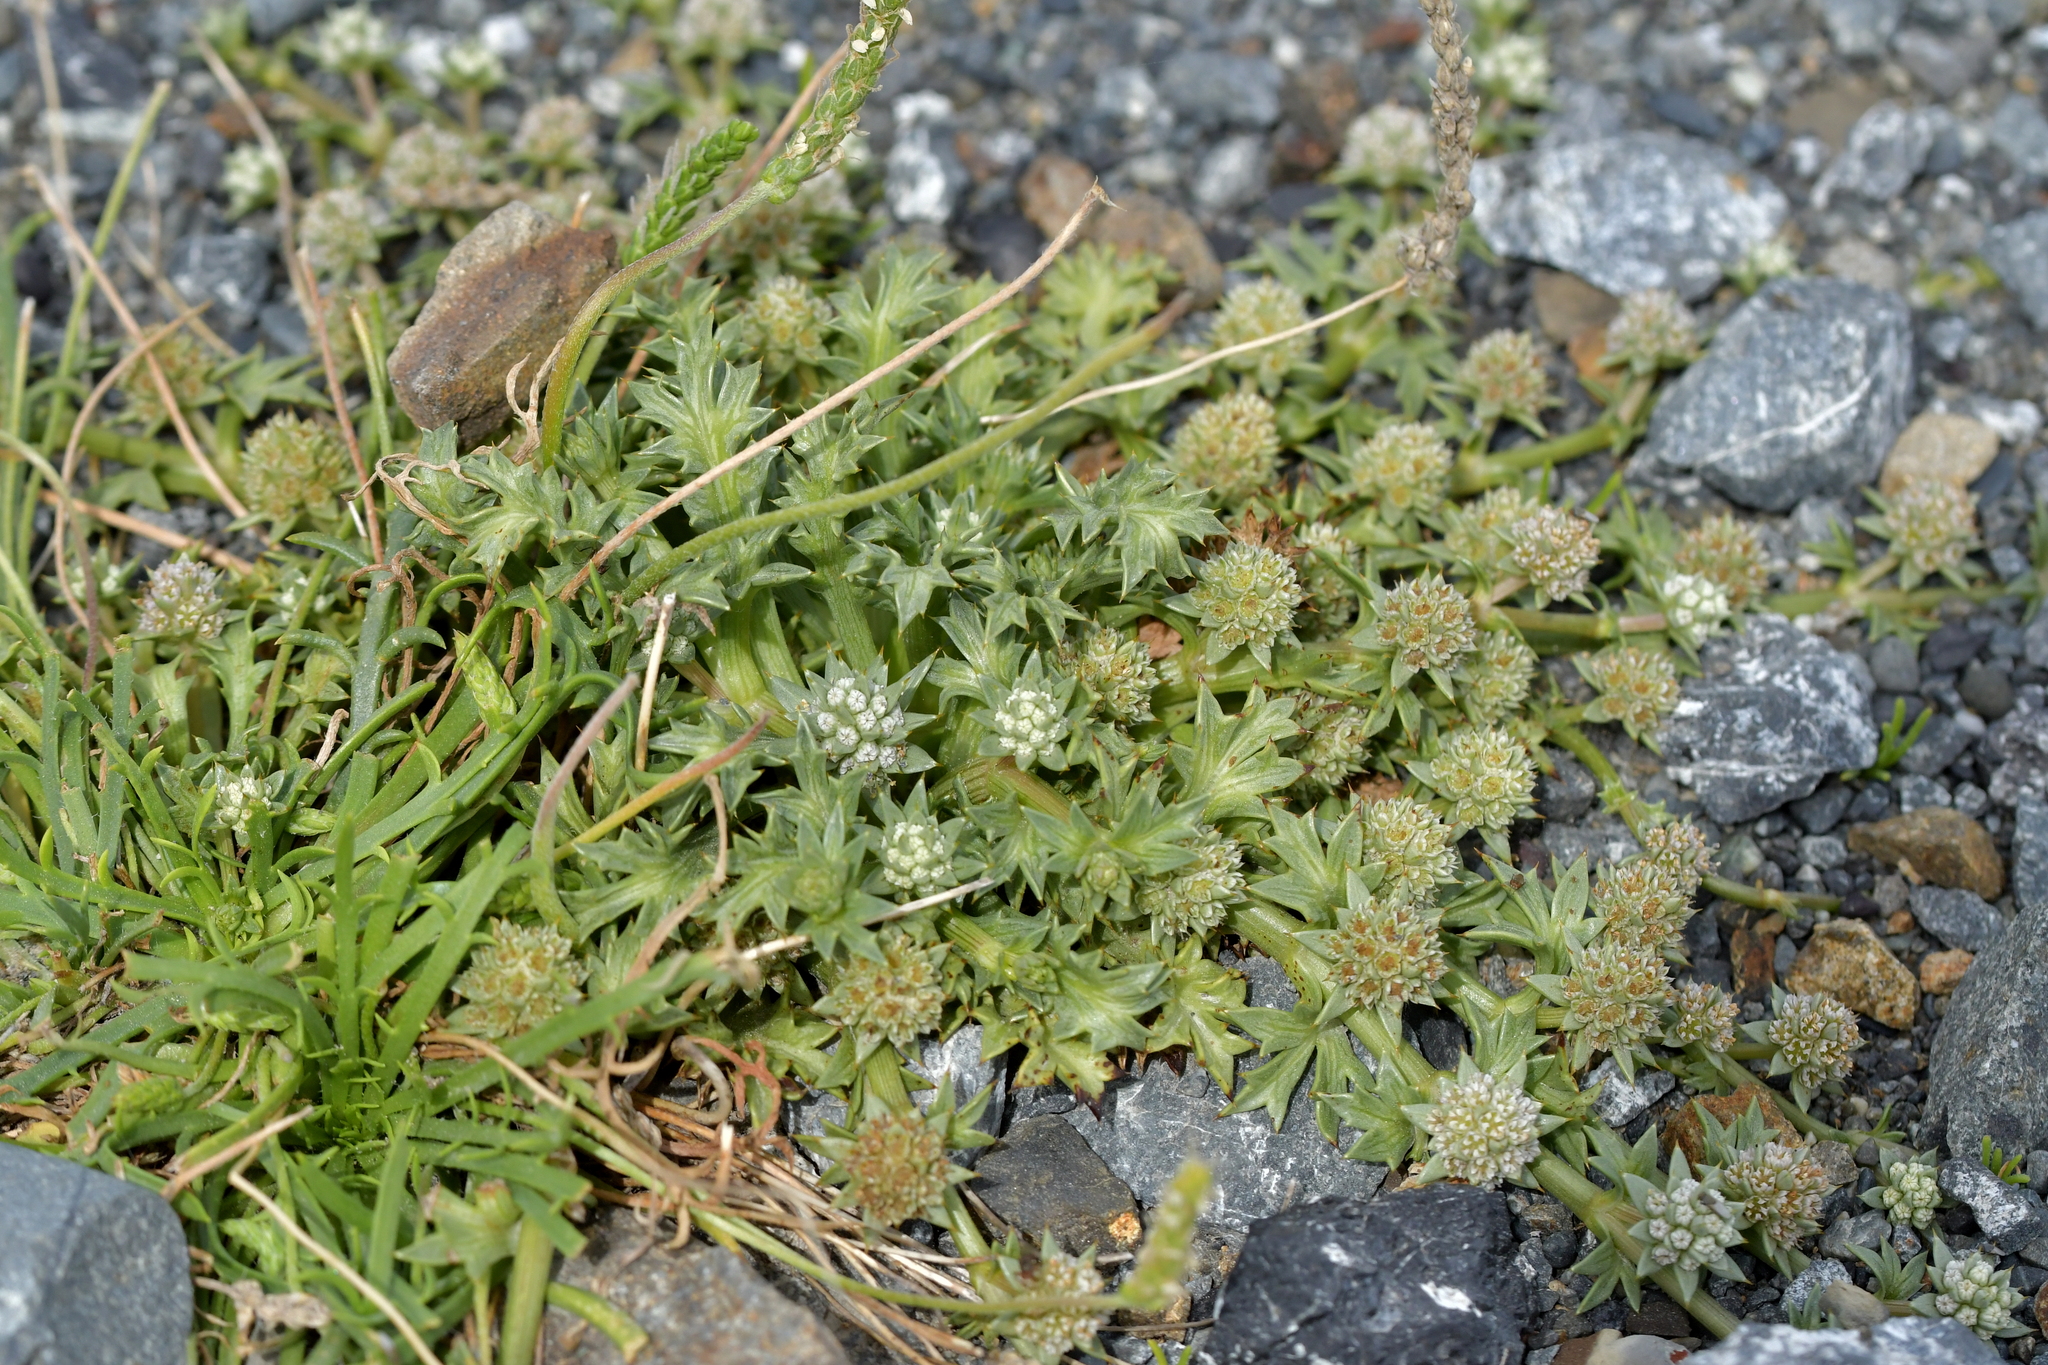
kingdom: Plantae
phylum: Tracheophyta
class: Magnoliopsida
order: Apiales
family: Apiaceae
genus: Eryngium
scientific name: Eryngium vesiculosum
